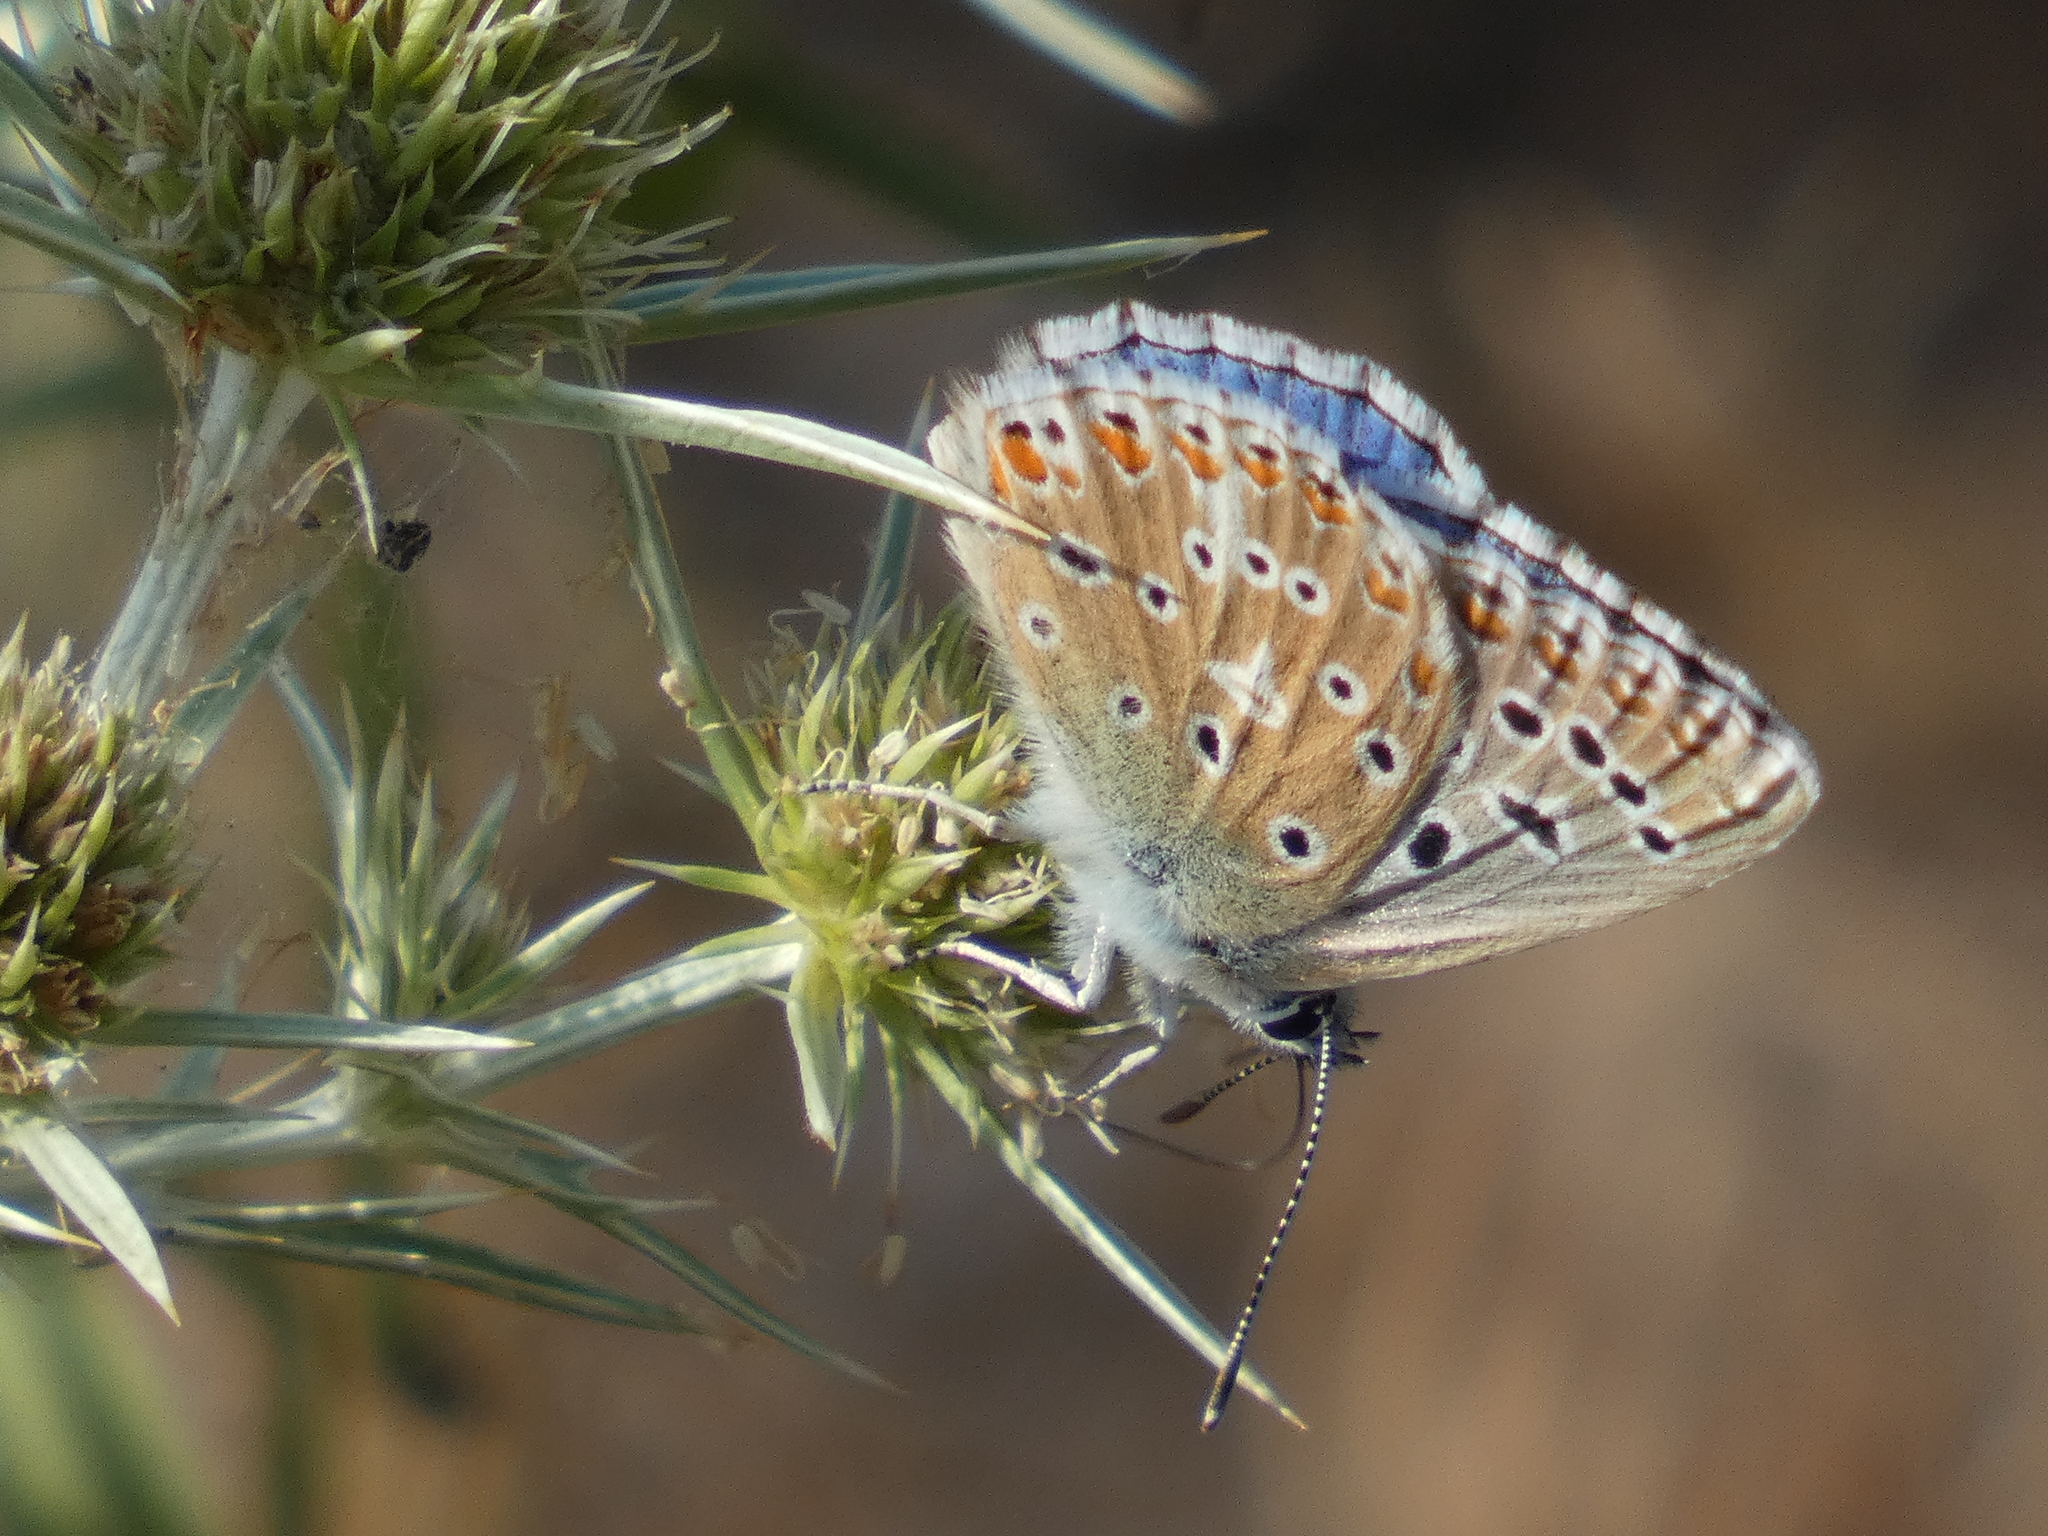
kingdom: Animalia
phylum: Arthropoda
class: Insecta
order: Lepidoptera
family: Lycaenidae
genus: Lysandra
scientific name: Lysandra bellargus
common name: Adonis blue
